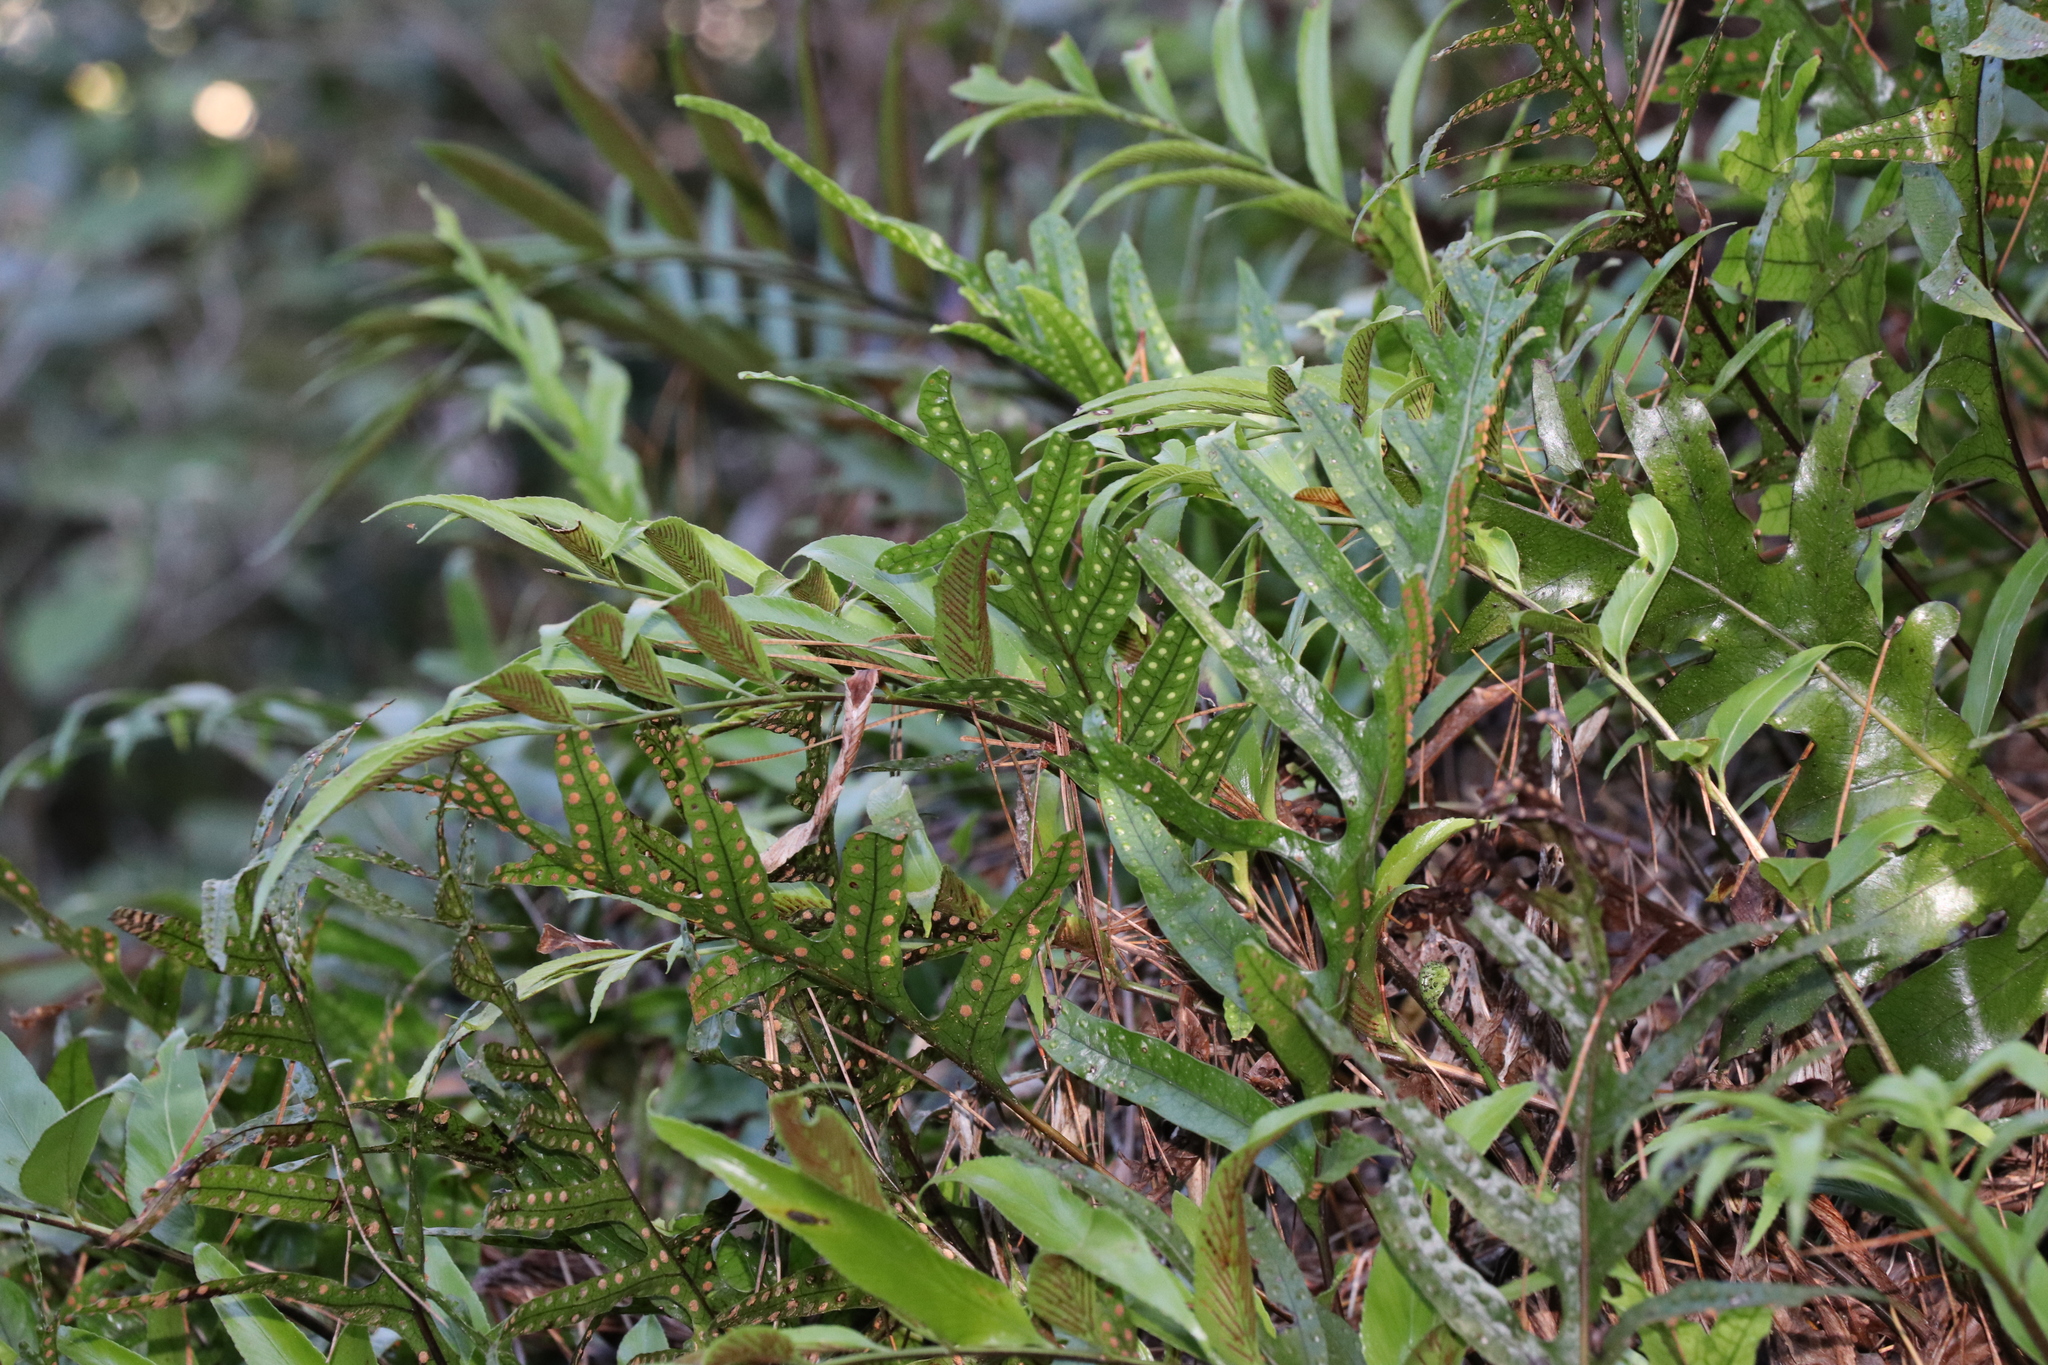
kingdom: Plantae
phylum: Tracheophyta
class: Polypodiopsida
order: Polypodiales
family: Polypodiaceae
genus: Lecanopteris
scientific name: Lecanopteris pustulata
